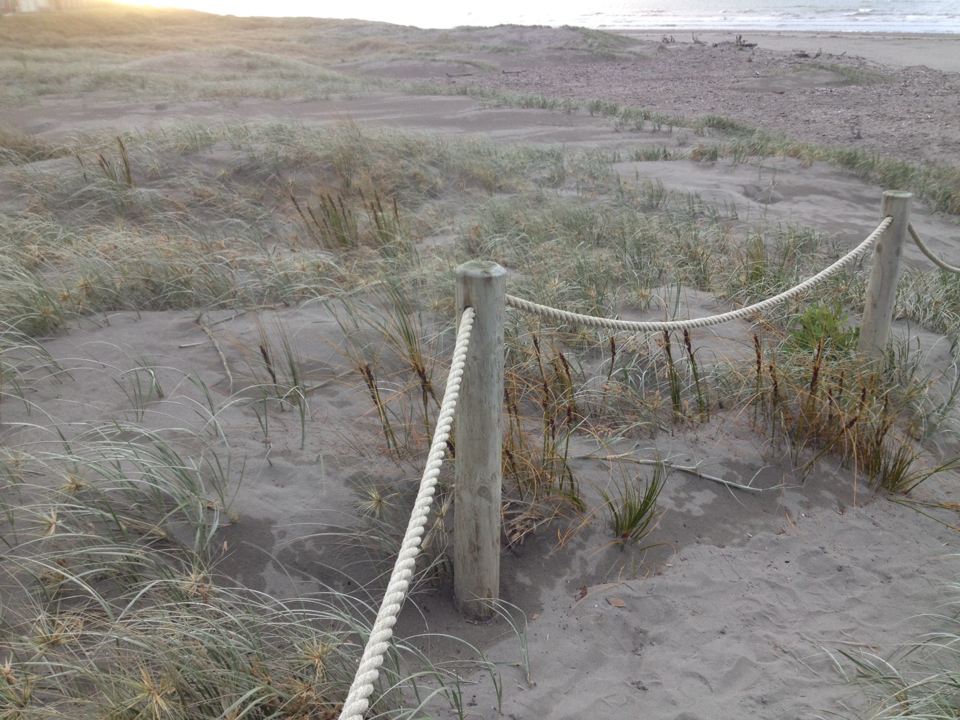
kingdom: Plantae
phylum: Tracheophyta
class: Liliopsida
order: Poales
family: Cyperaceae
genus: Ficinia
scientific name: Ficinia spiralis
